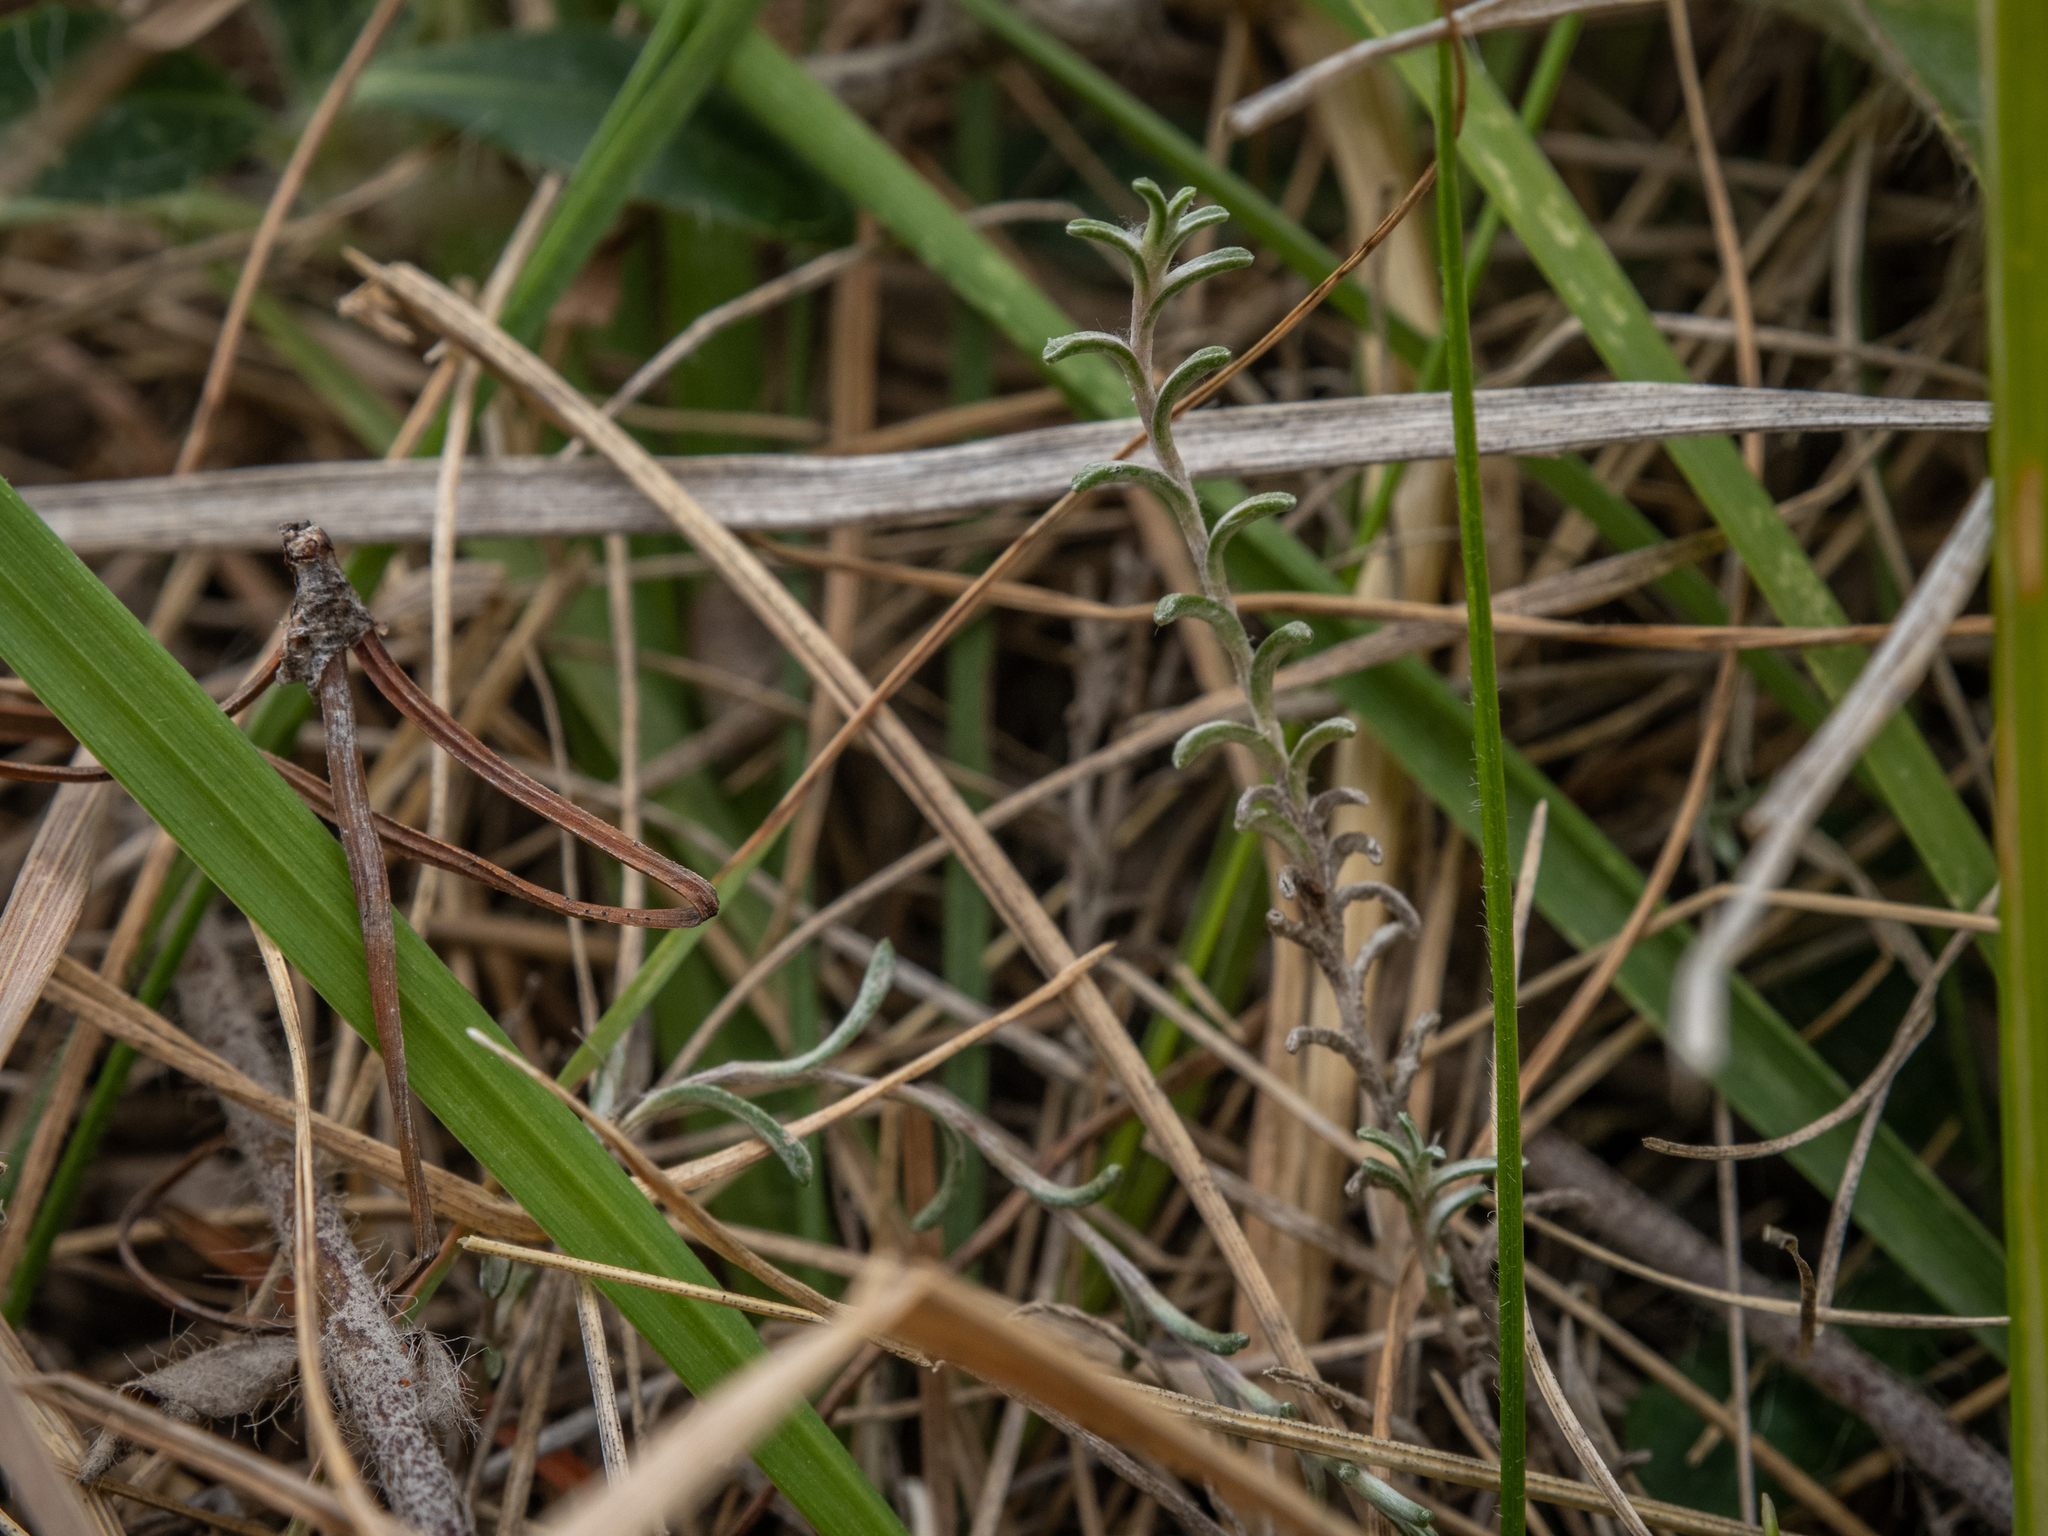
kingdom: Plantae
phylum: Tracheophyta
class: Magnoliopsida
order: Asterales
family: Asteraceae
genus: Raoulia
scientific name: Raoulia monroi
